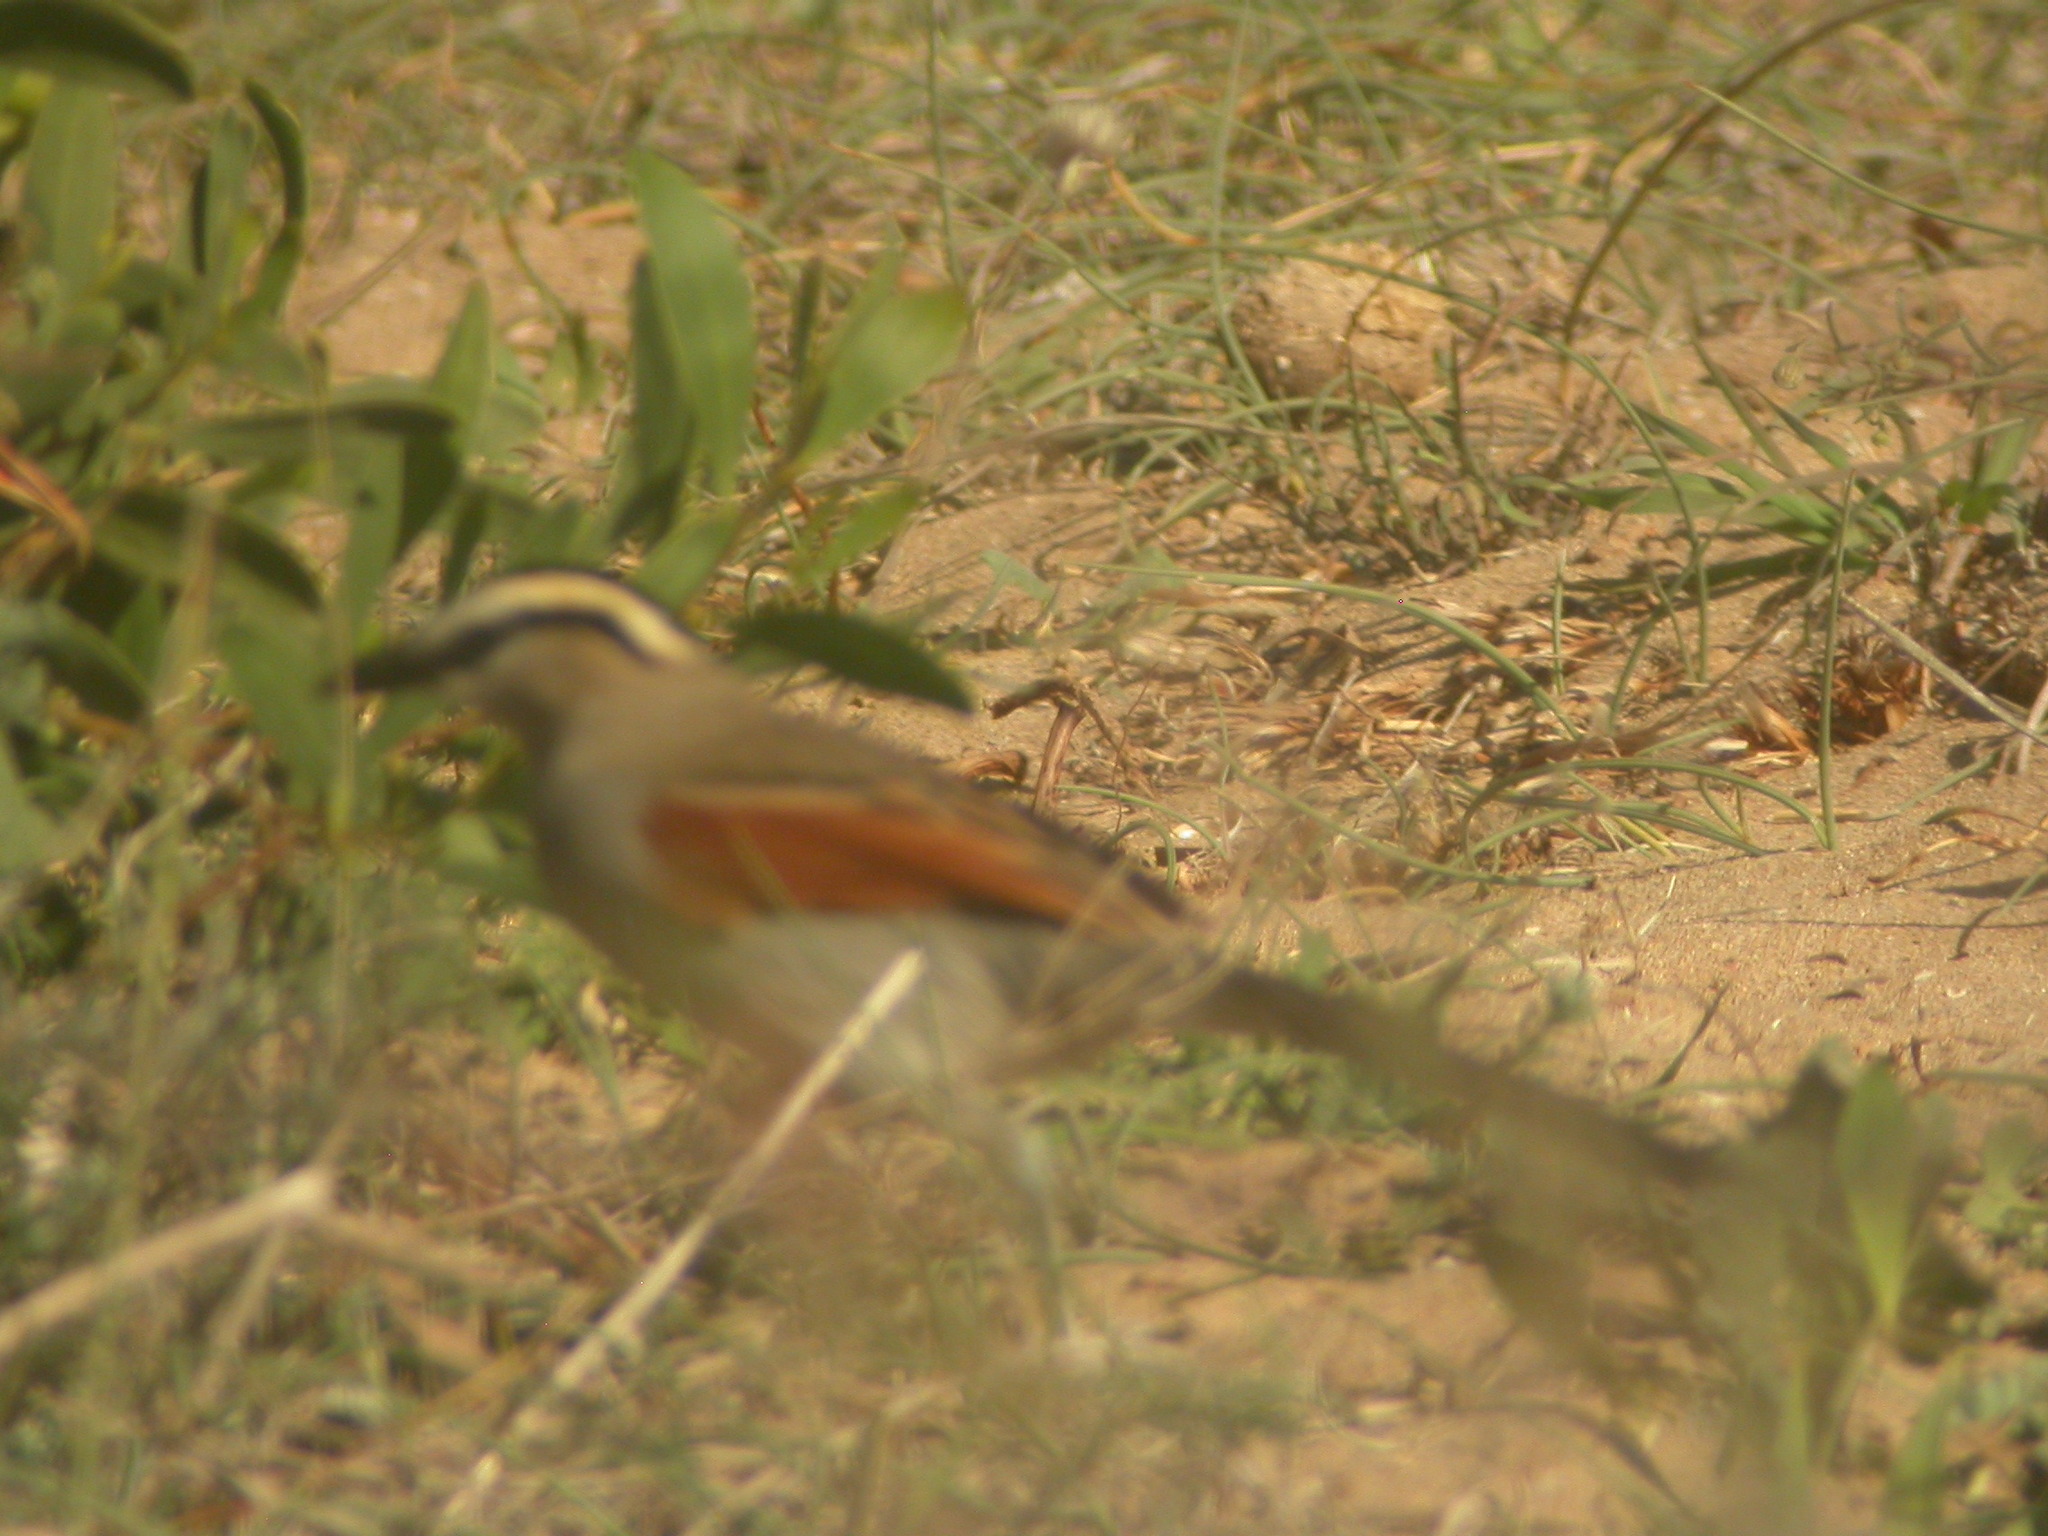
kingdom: Animalia
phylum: Chordata
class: Aves
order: Passeriformes
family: Malaconotidae
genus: Tchagra
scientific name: Tchagra senegalus
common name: Black-crowned tchagra
